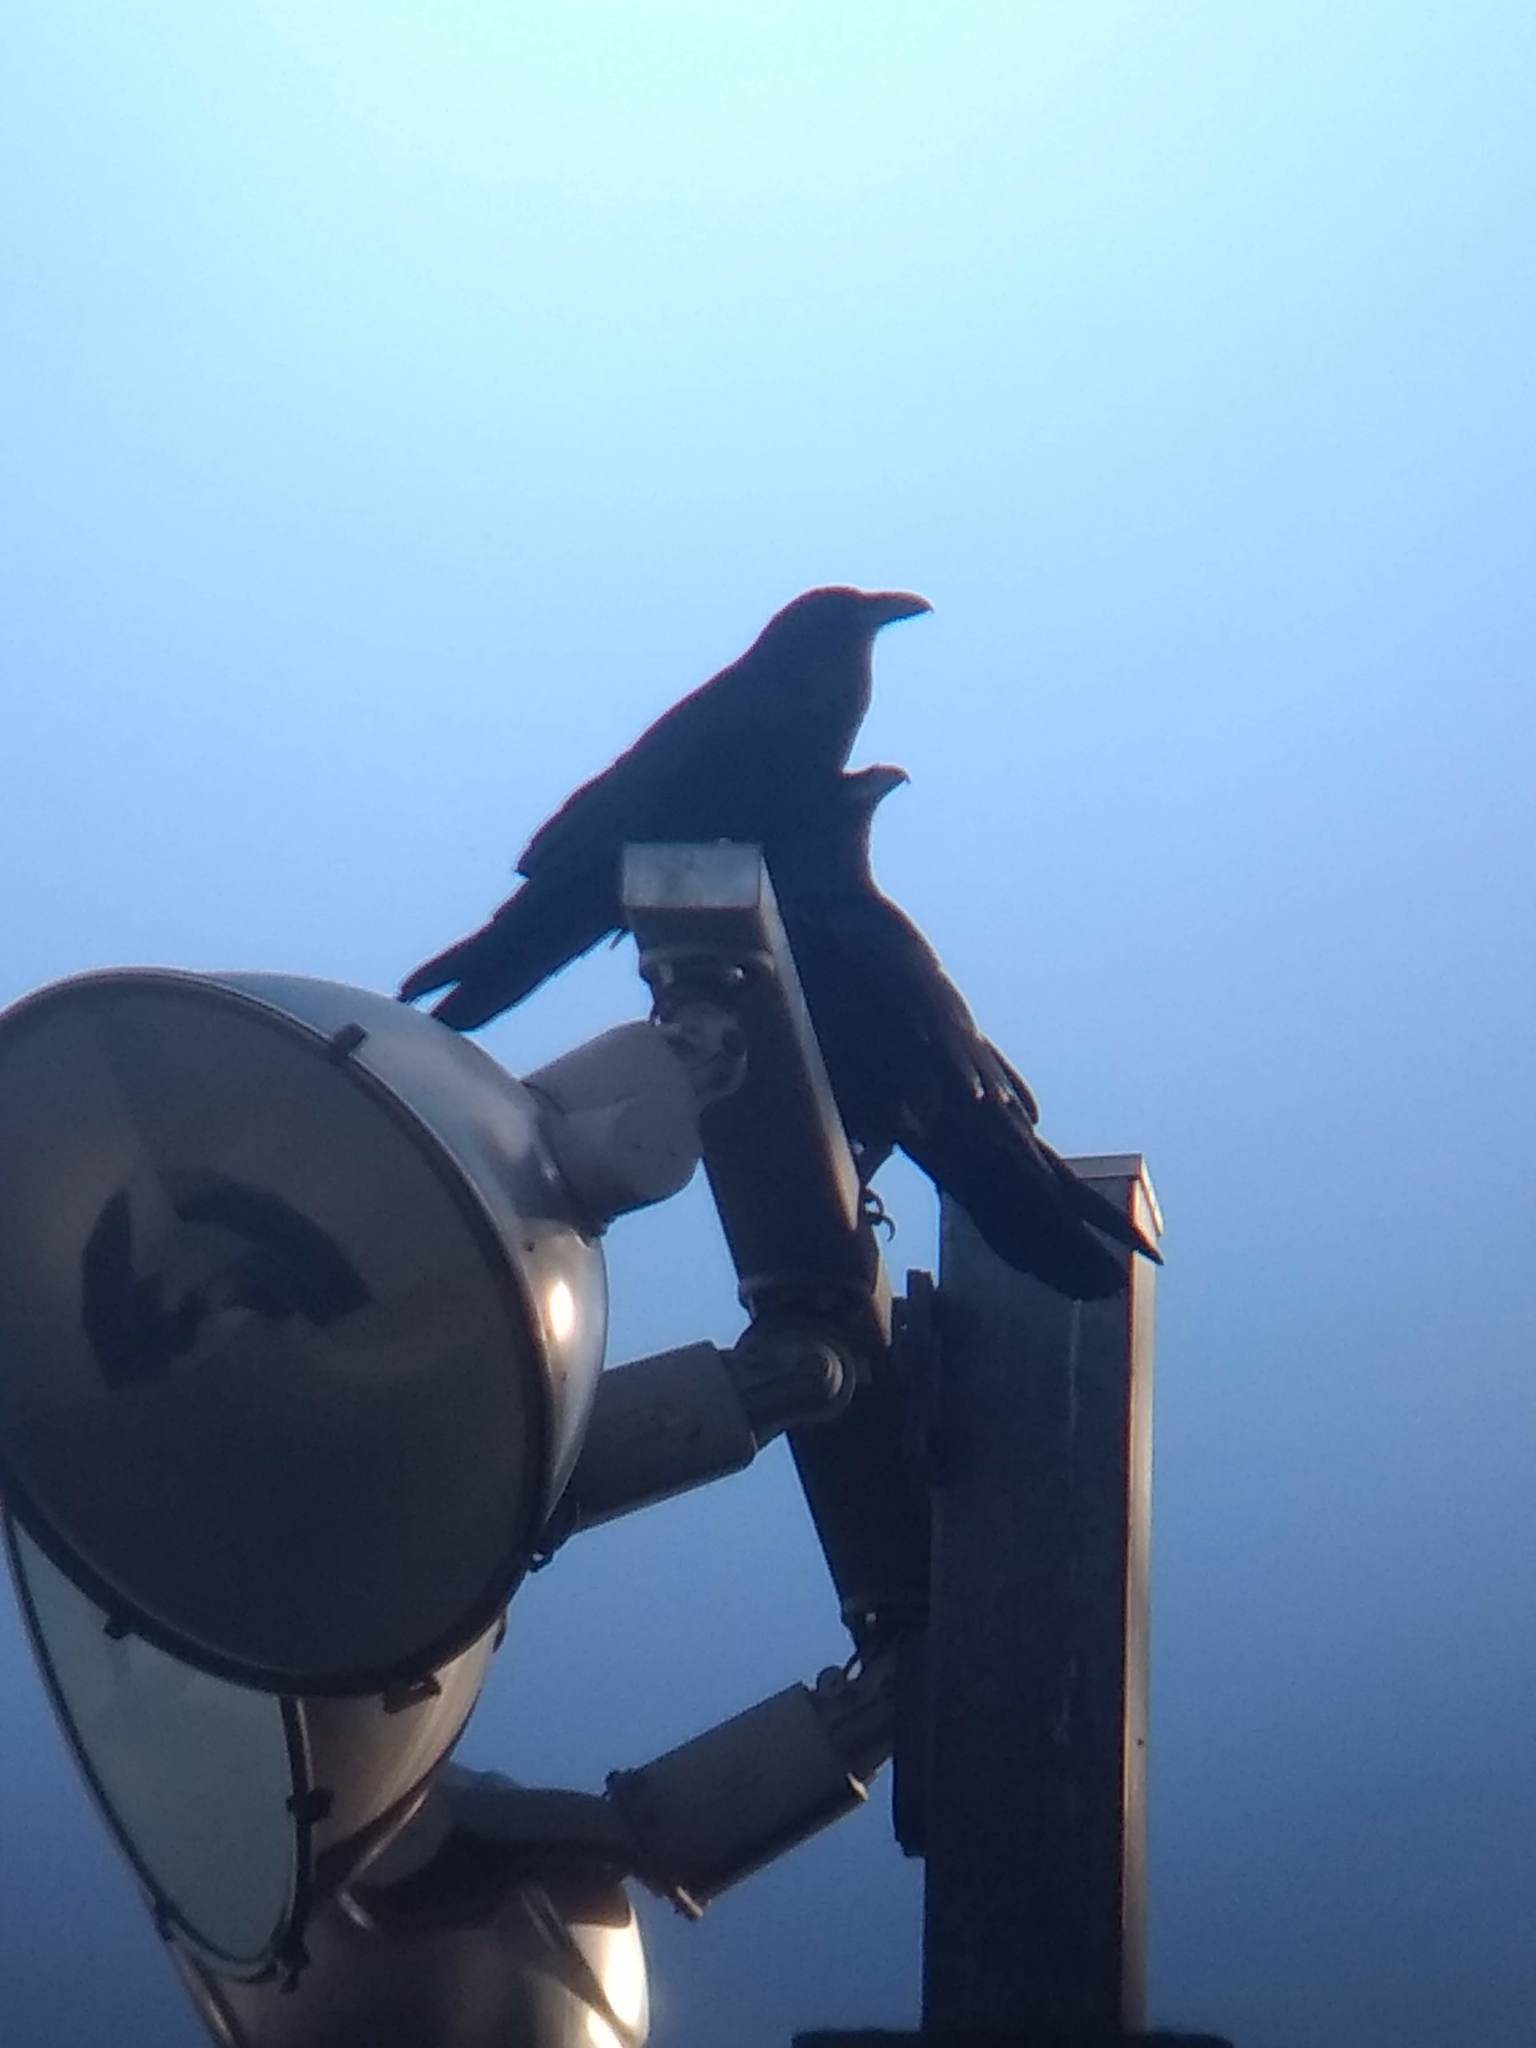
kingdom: Animalia
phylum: Chordata
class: Aves
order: Passeriformes
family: Corvidae
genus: Corvus
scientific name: Corvus corax
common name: Common raven
